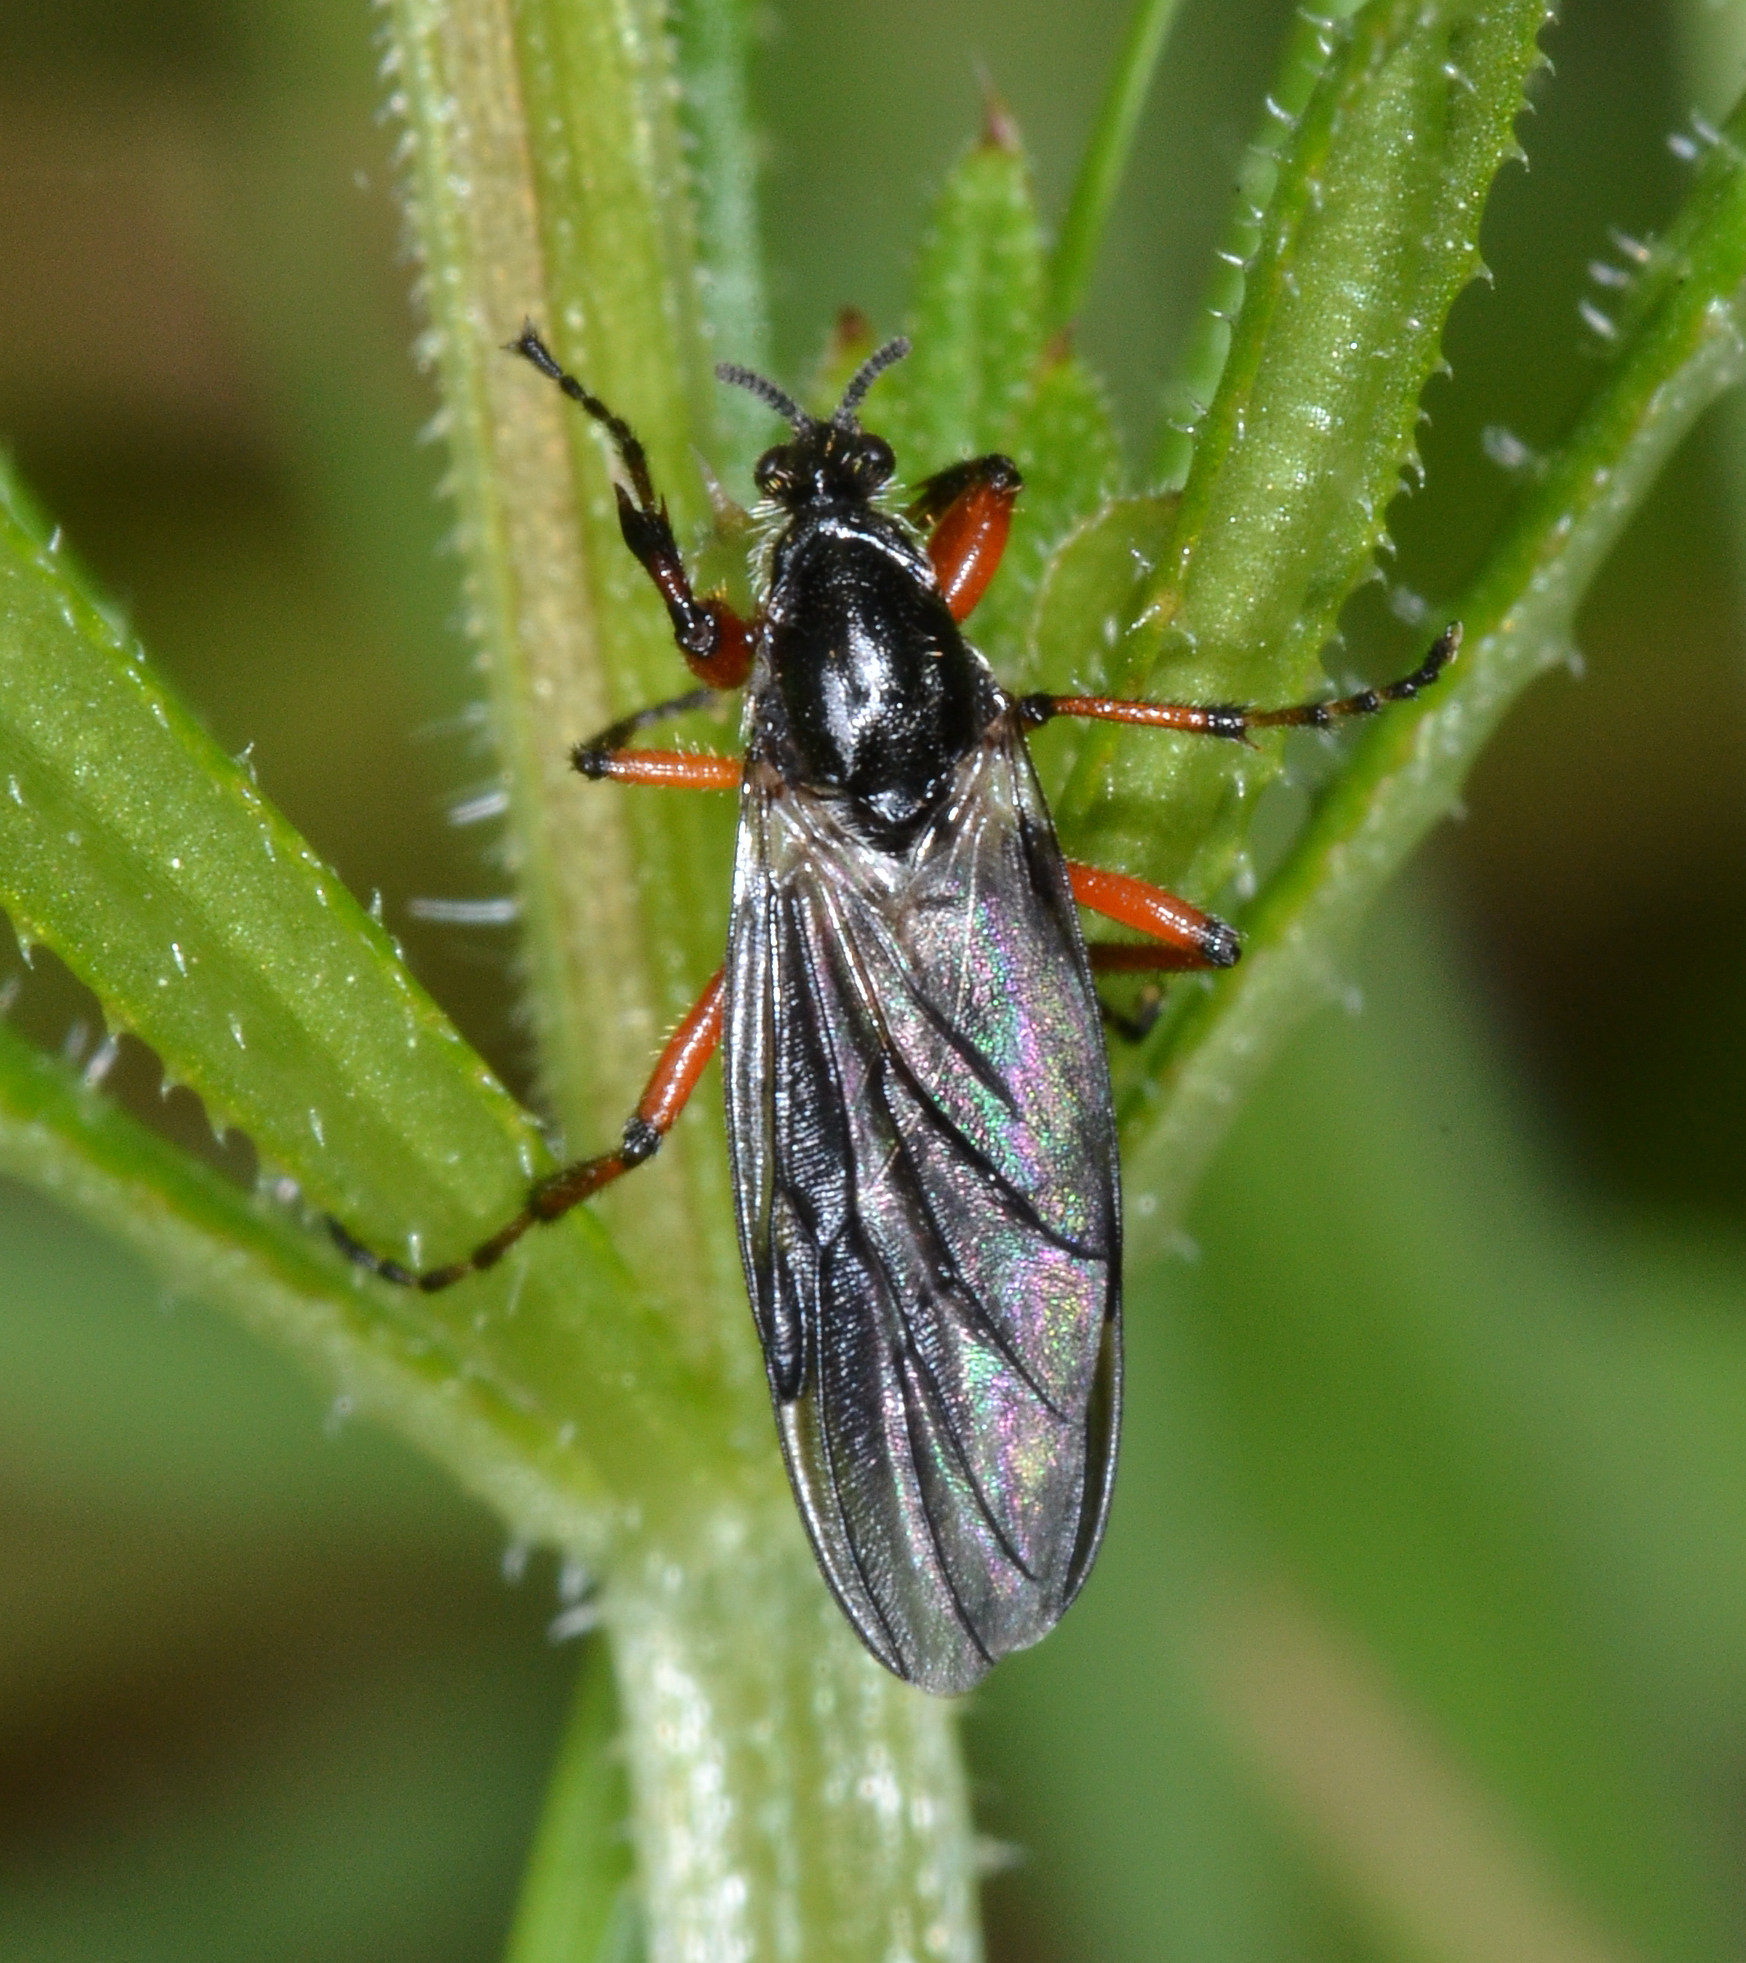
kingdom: Animalia
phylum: Arthropoda
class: Insecta
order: Diptera
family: Bibionidae
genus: Bibio
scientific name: Bibio
